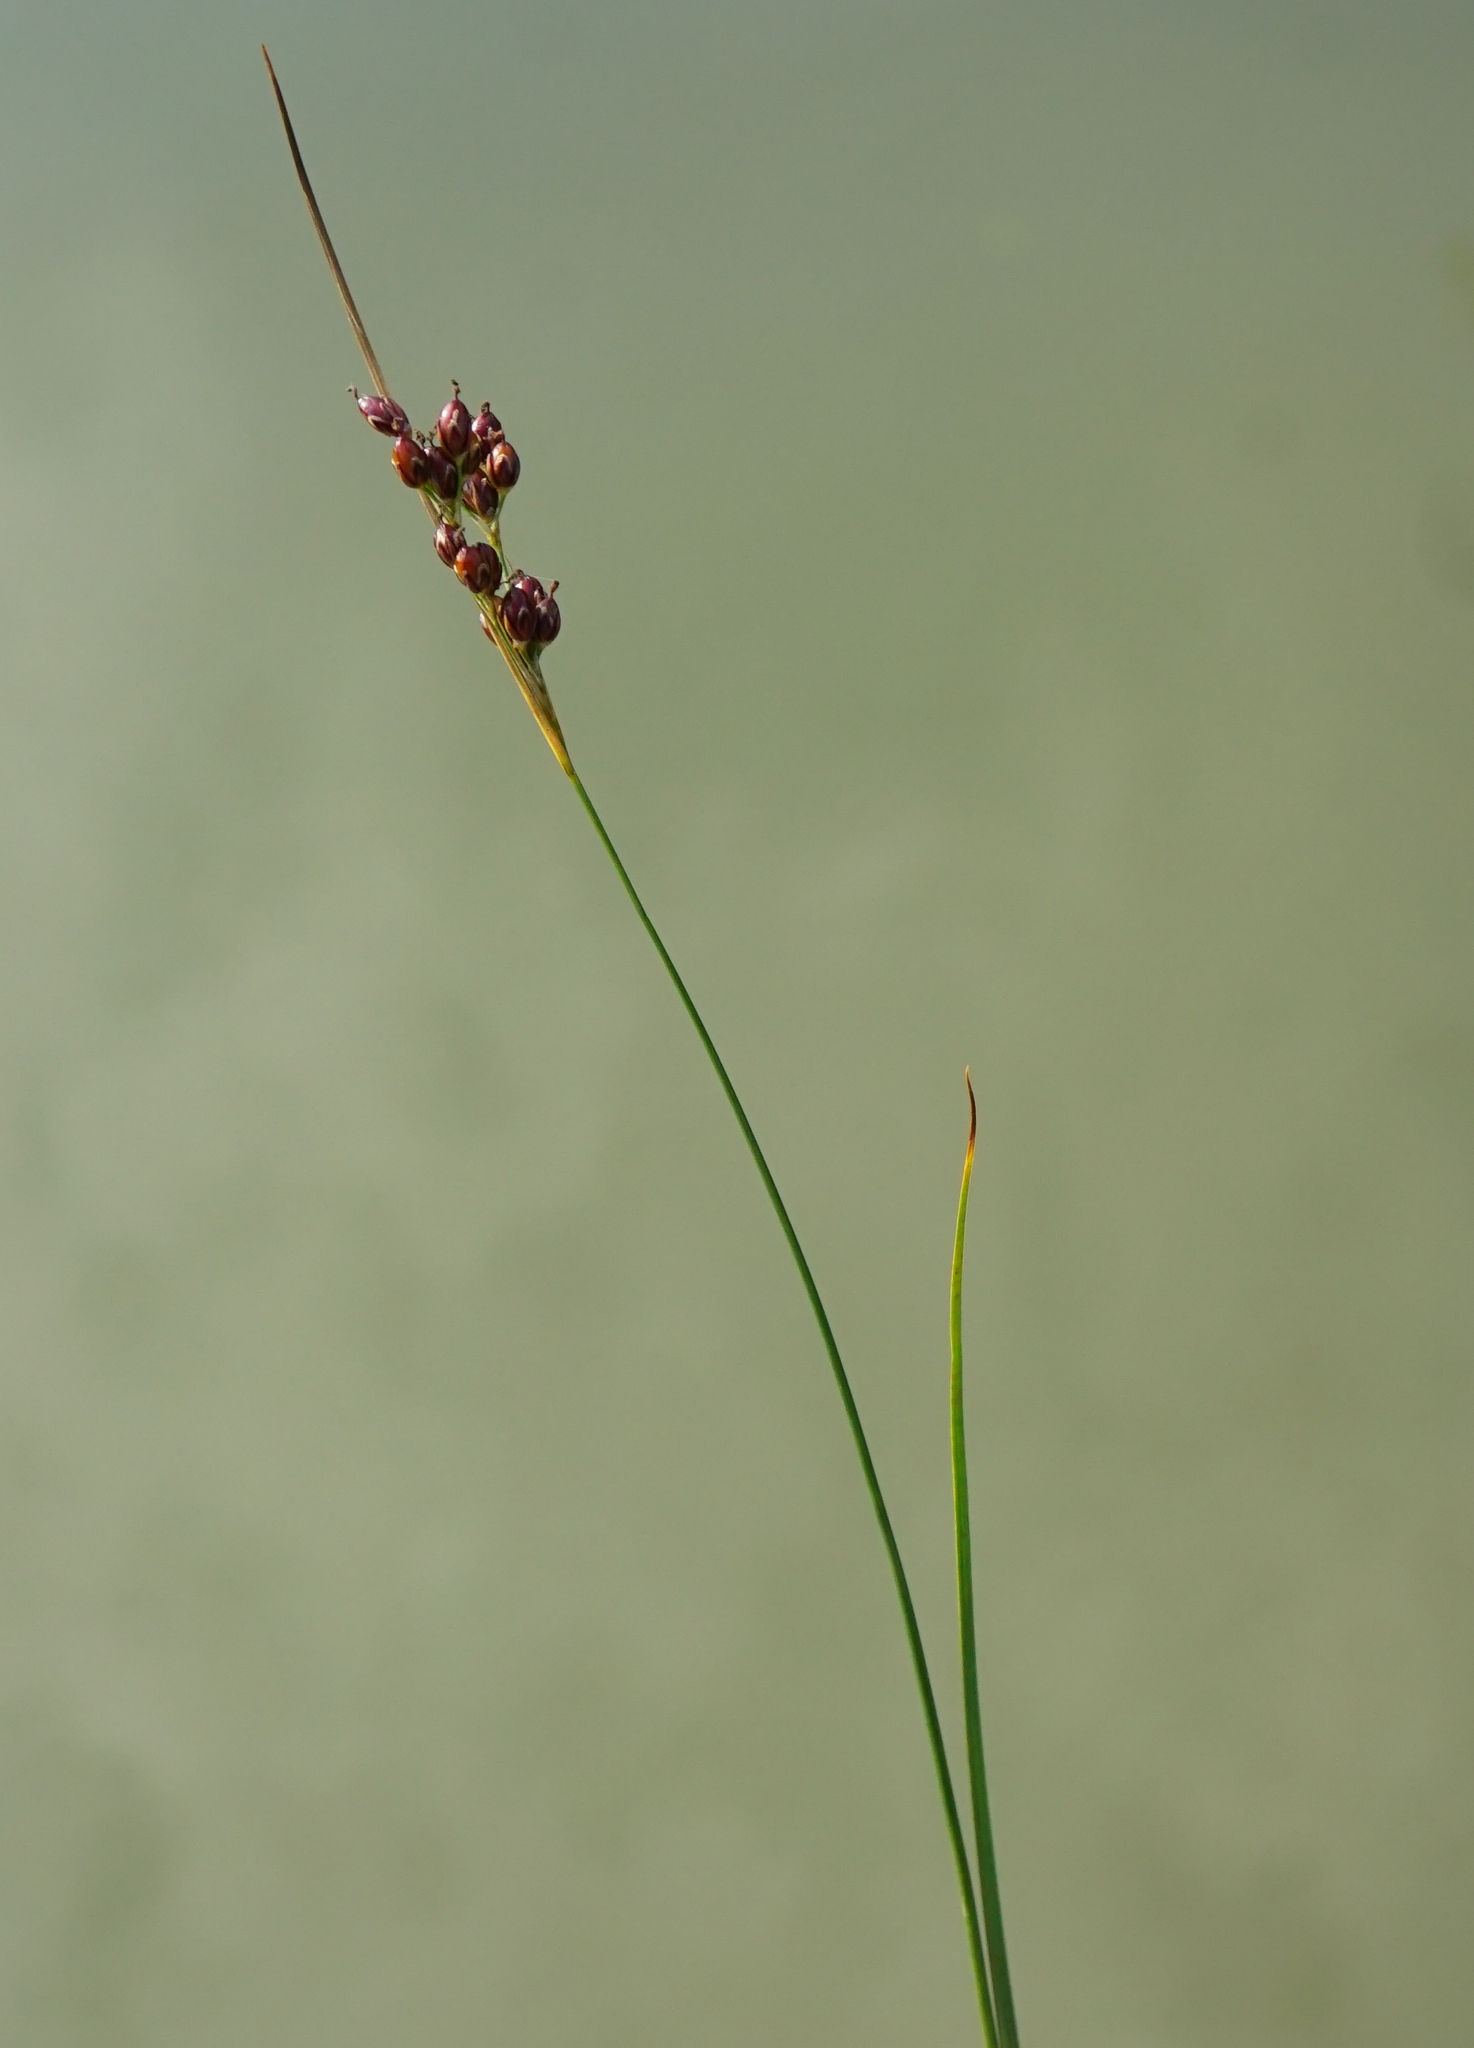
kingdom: Plantae
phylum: Tracheophyta
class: Liliopsida
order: Poales
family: Juncaceae
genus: Juncus
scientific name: Juncus compressus
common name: Round-fruited rush
